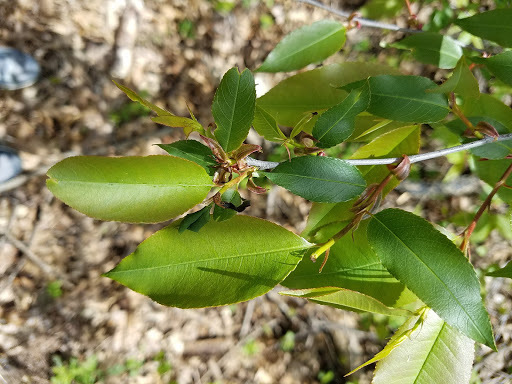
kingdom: Plantae
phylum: Tracheophyta
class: Magnoliopsida
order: Rosales
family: Rosaceae
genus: Prunus
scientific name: Prunus serotina
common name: Black cherry
